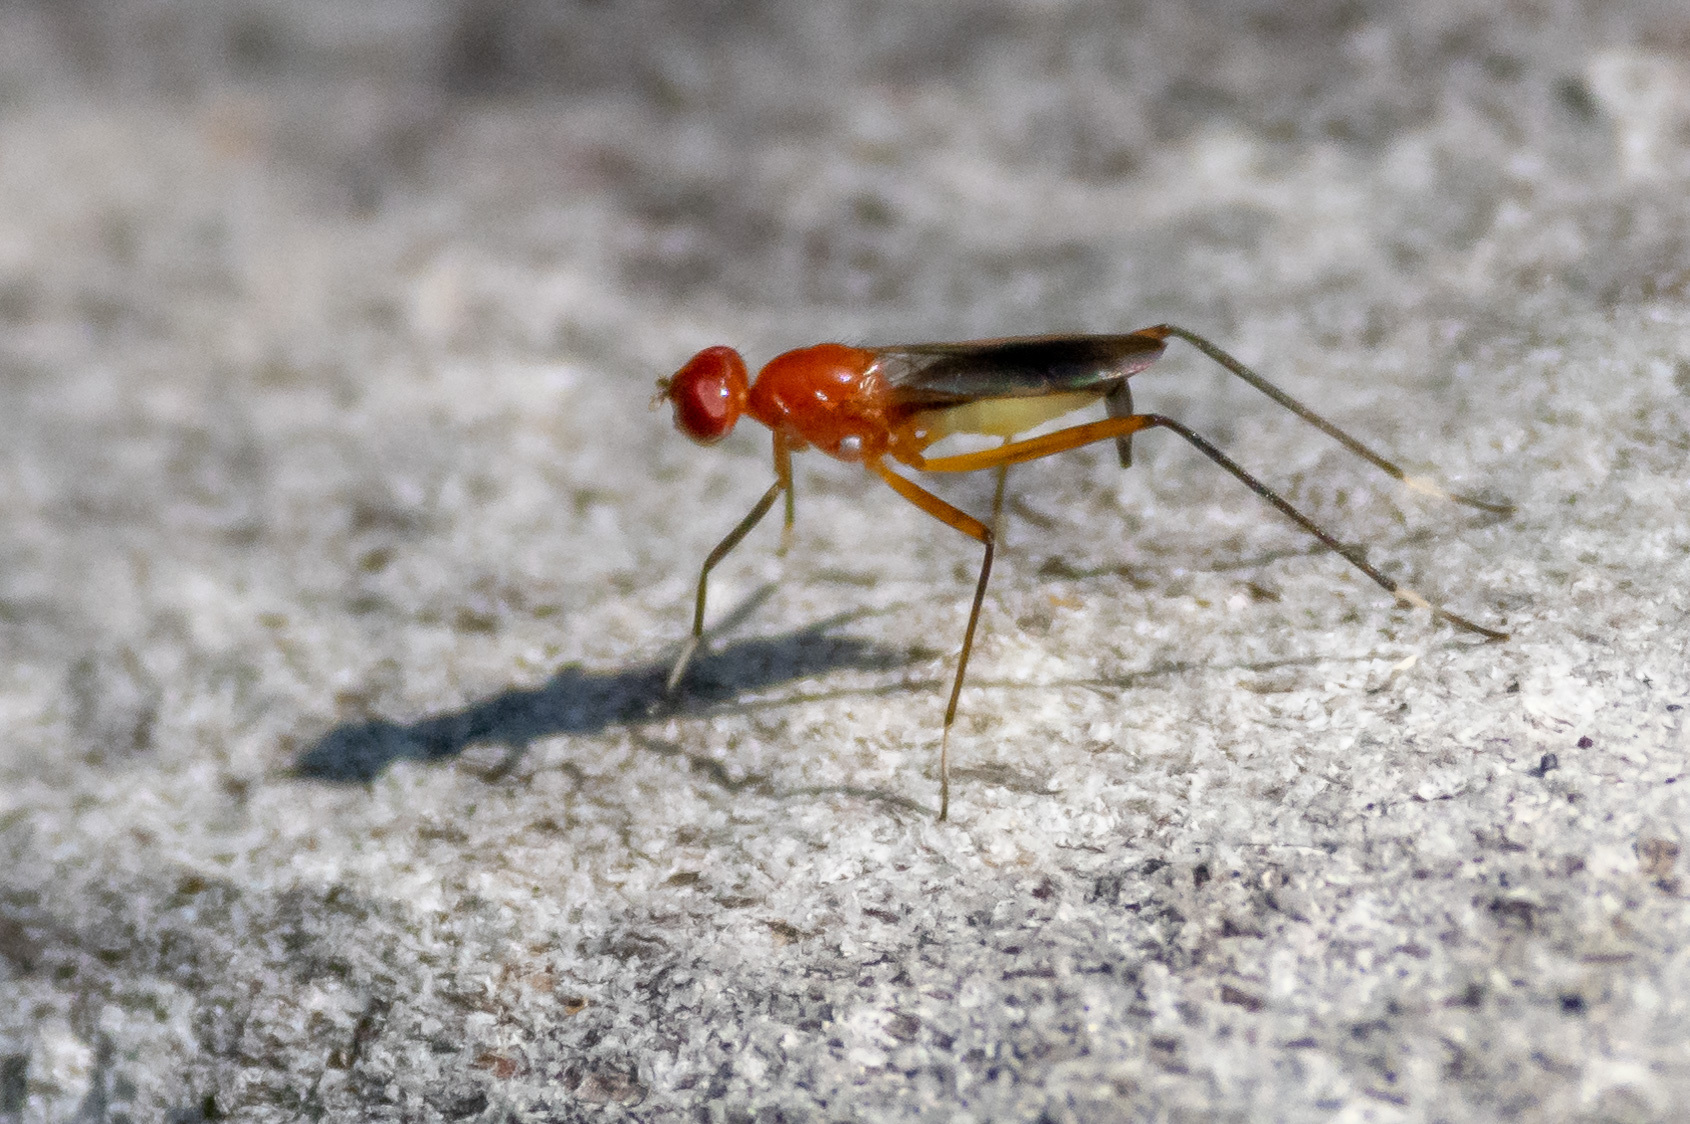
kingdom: Animalia
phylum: Arthropoda
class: Insecta
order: Diptera
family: Micropezidae
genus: Grallipeza
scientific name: Grallipeza nebulosa
